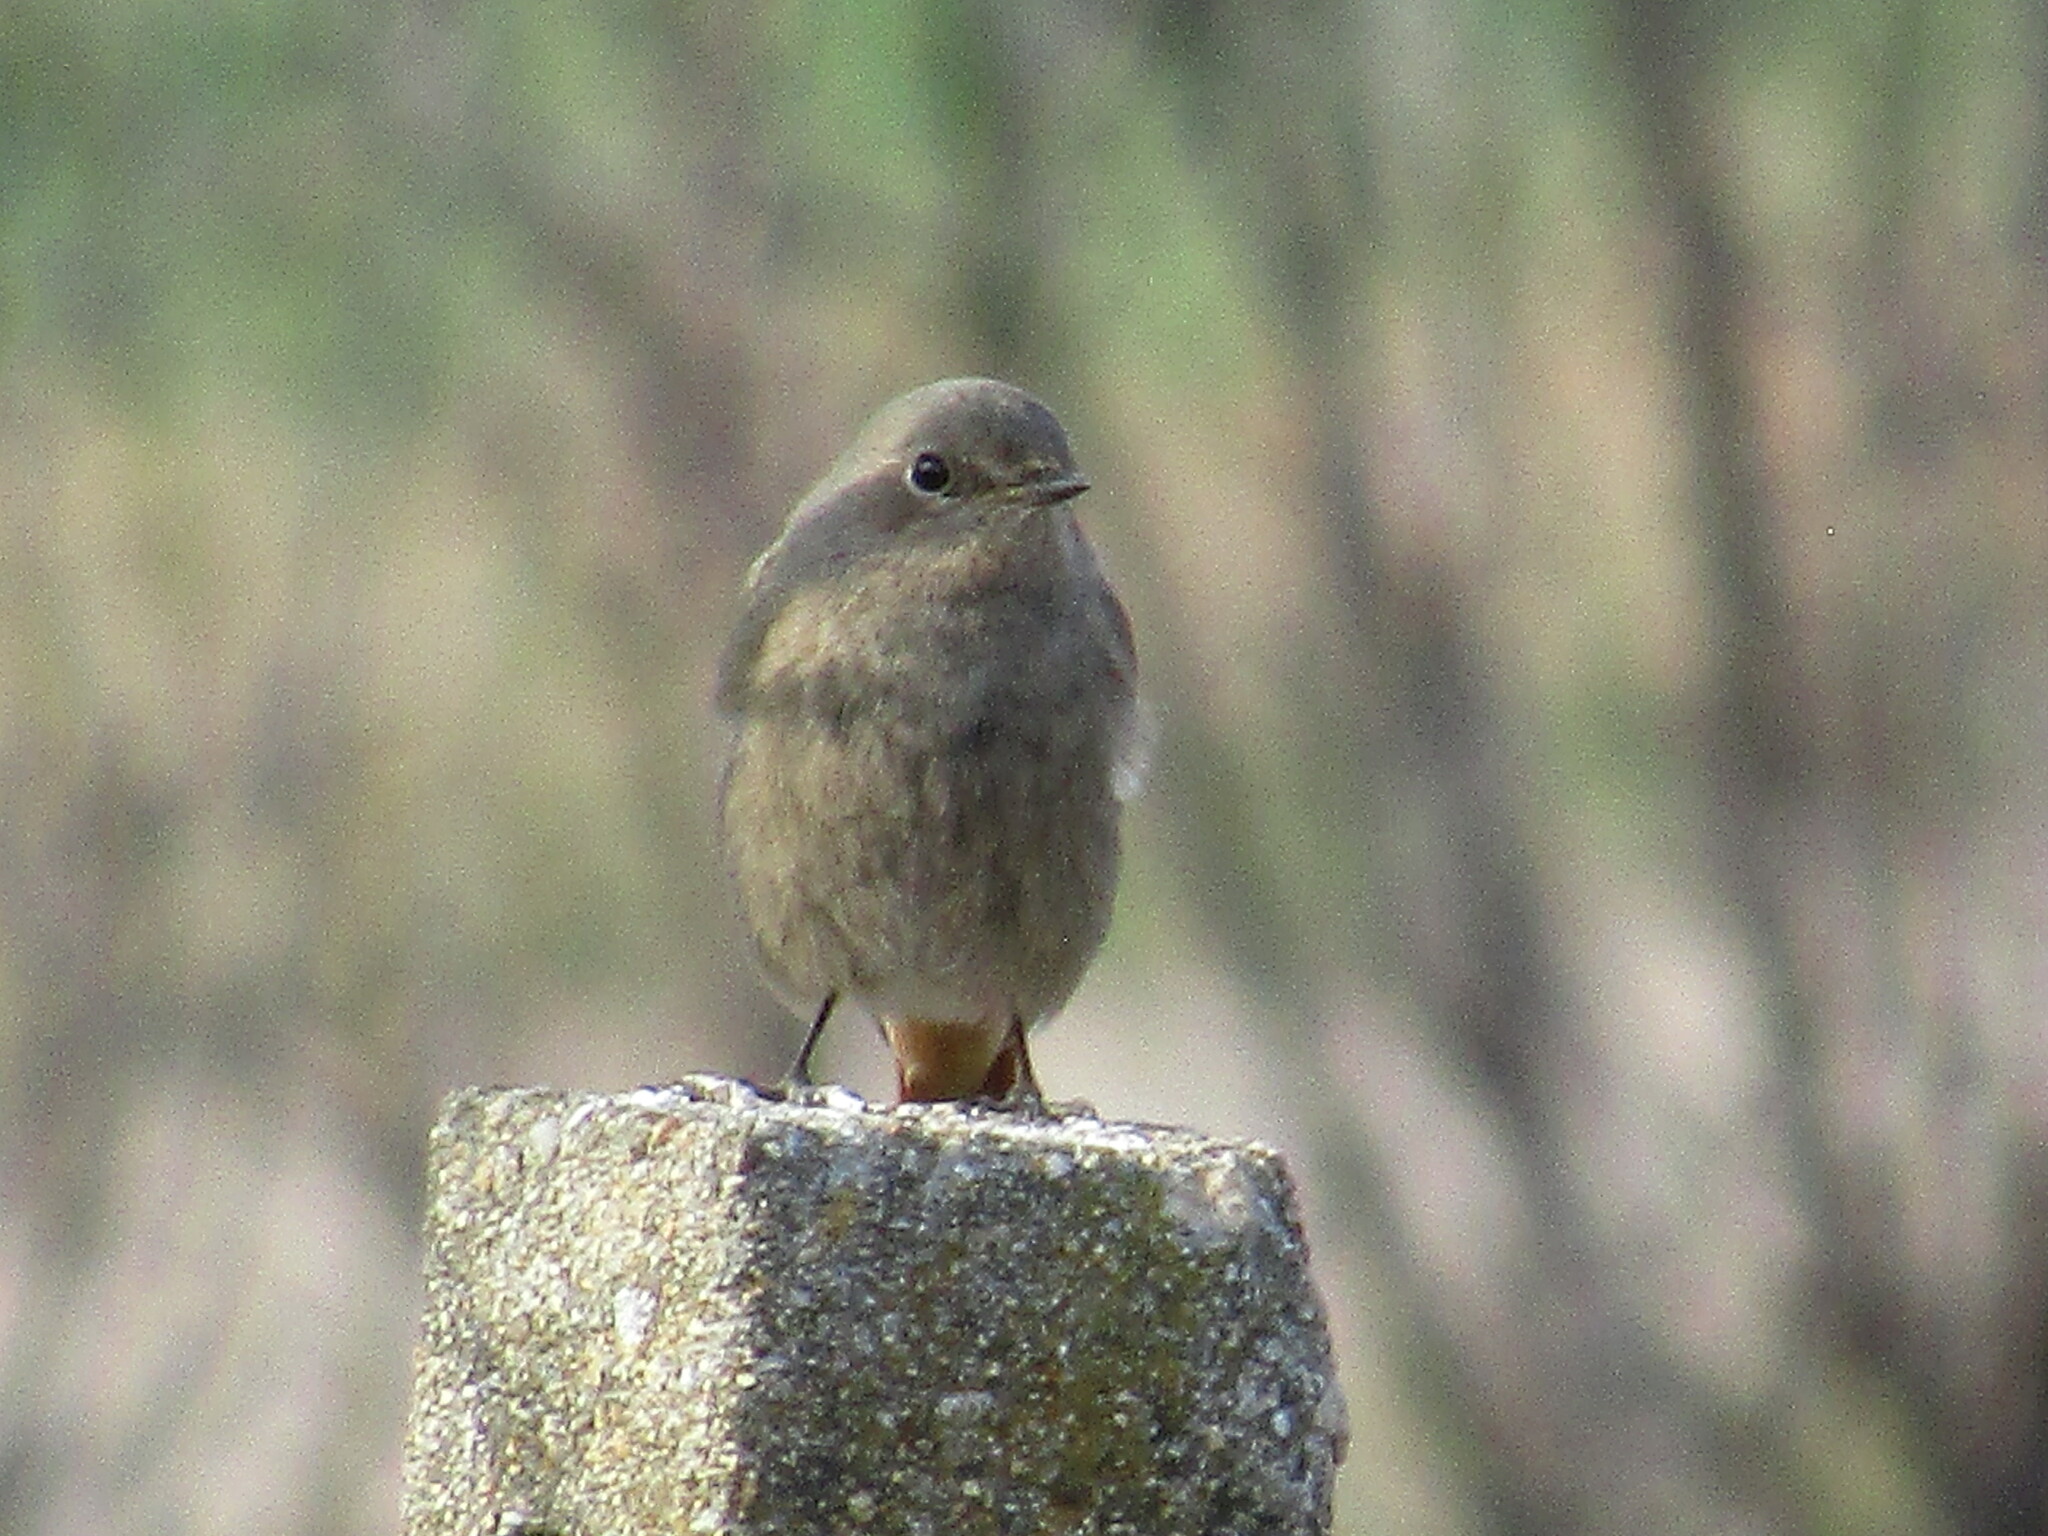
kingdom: Animalia
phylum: Chordata
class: Aves
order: Passeriformes
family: Muscicapidae
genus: Phoenicurus
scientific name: Phoenicurus ochruros
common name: Black redstart
